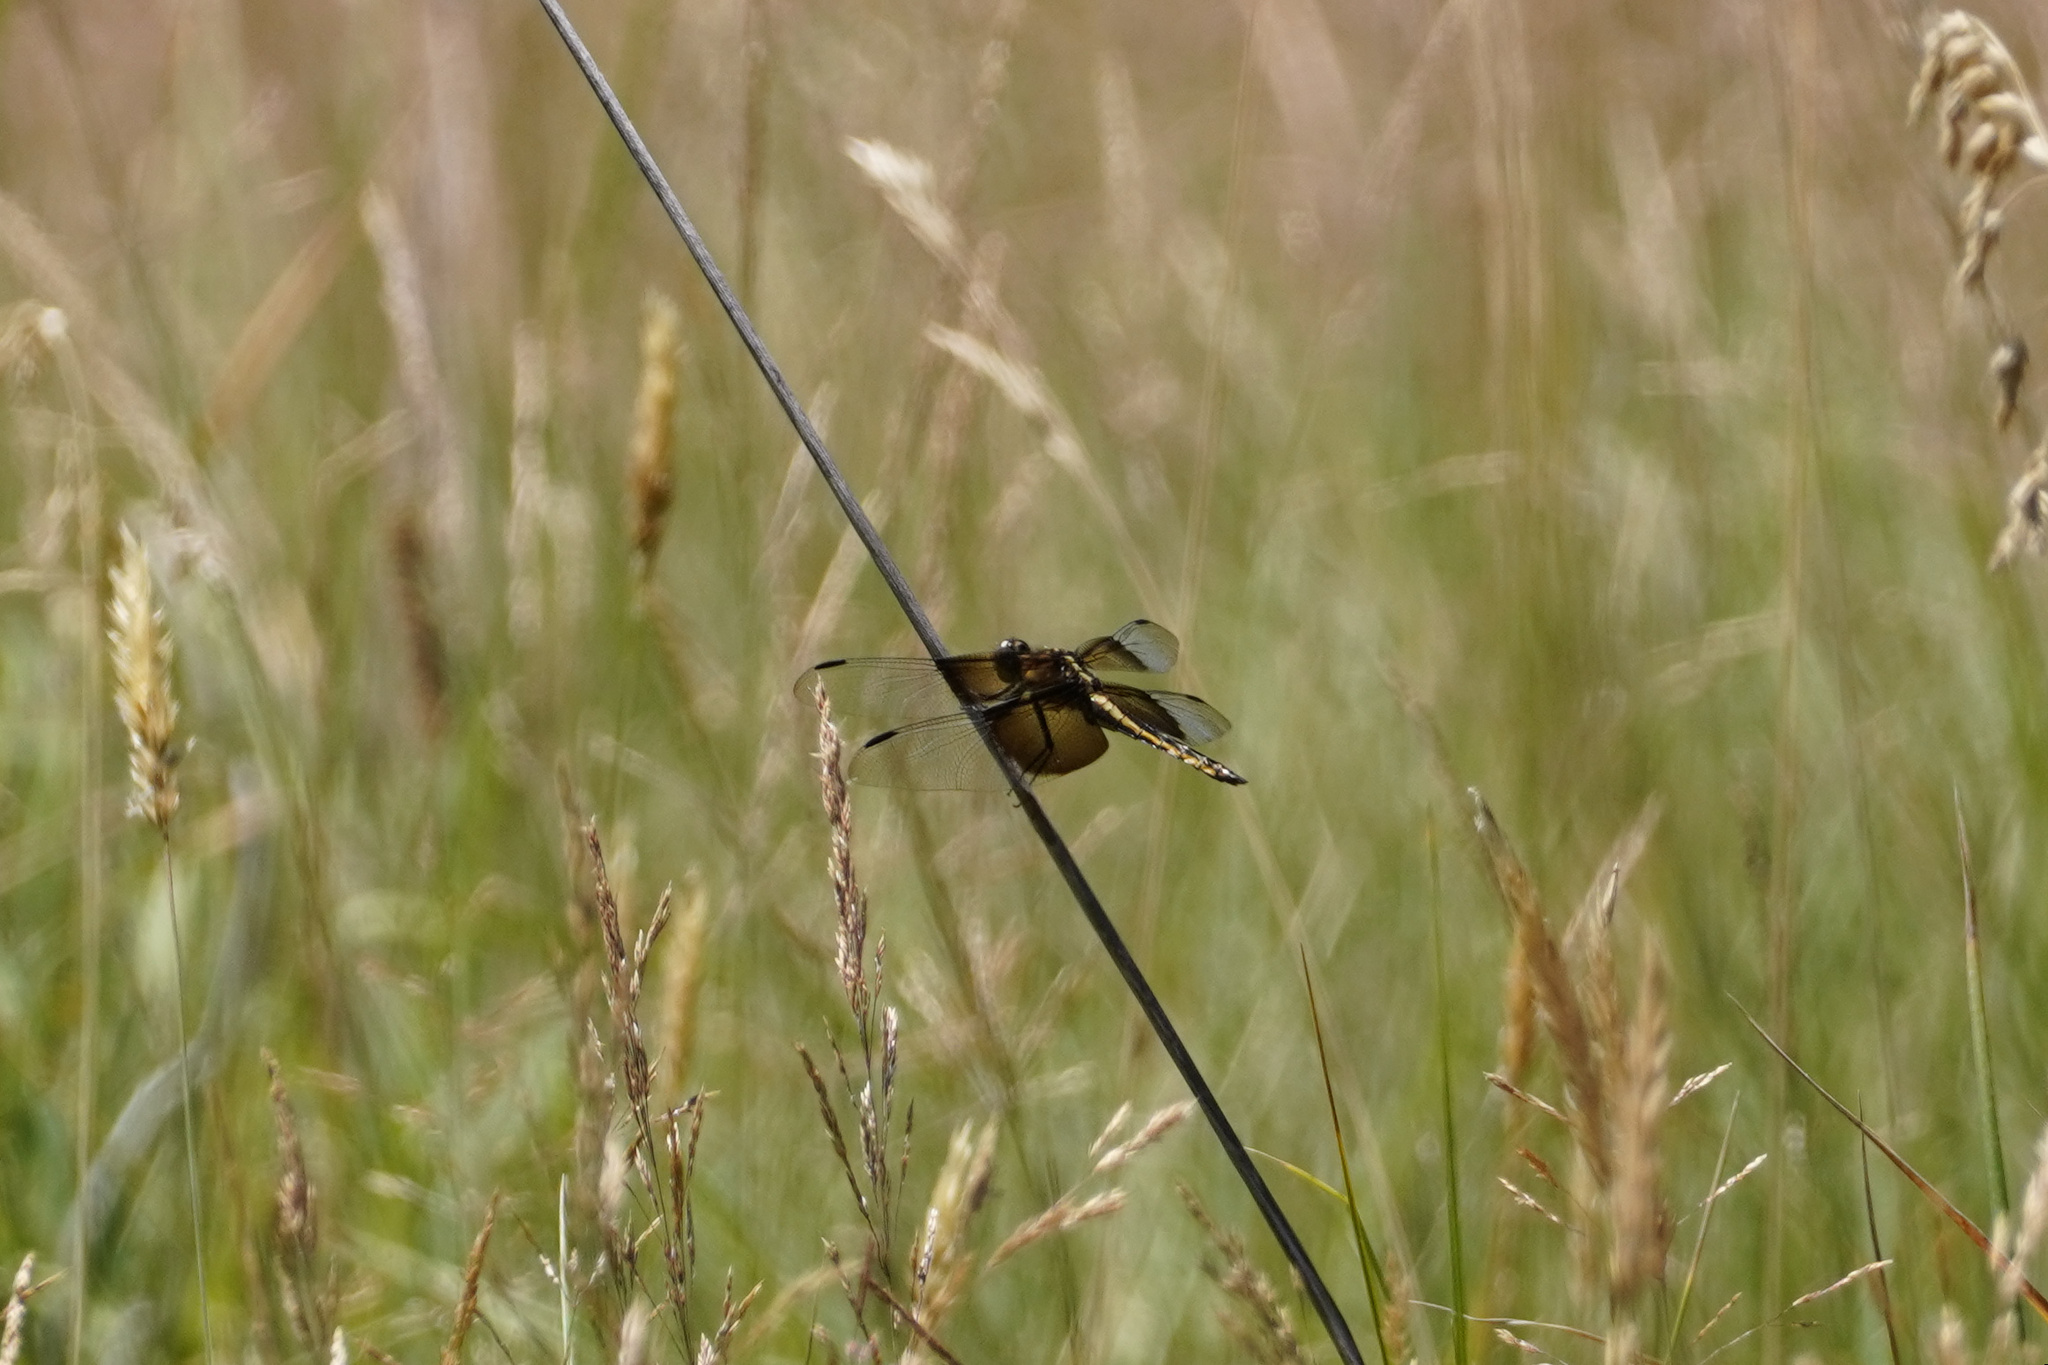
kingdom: Animalia
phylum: Arthropoda
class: Insecta
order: Odonata
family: Libellulidae
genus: Libellula
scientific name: Libellula luctuosa
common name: Widow skimmer
